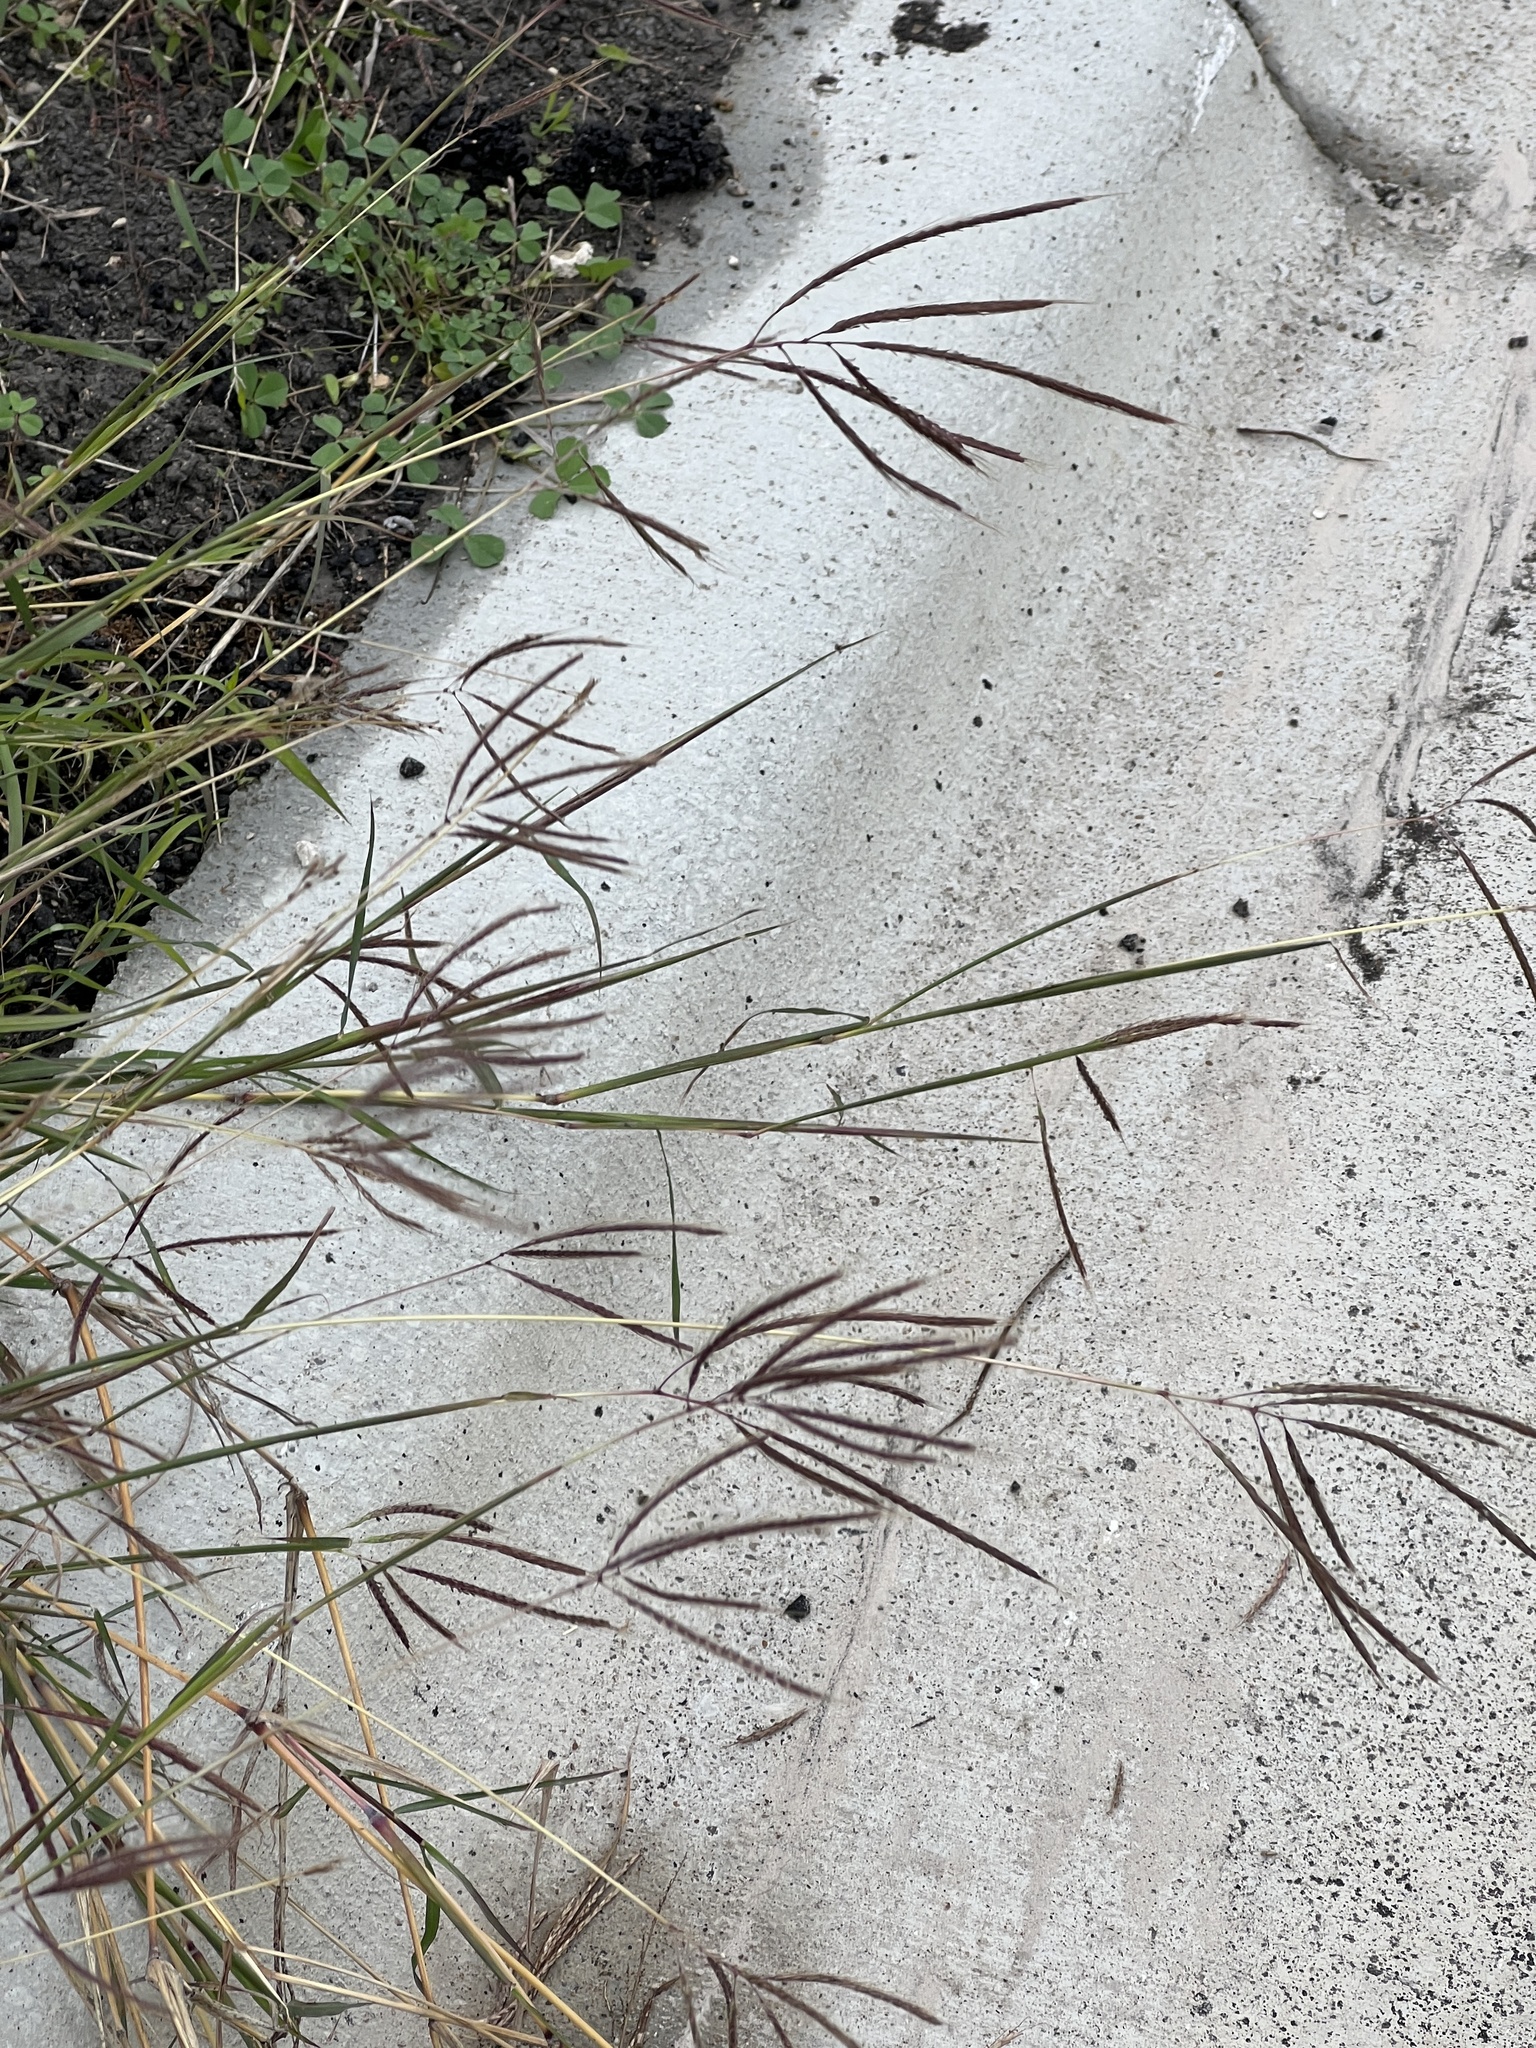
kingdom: Plantae
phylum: Tracheophyta
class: Liliopsida
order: Poales
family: Poaceae
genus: Dichanthium
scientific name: Dichanthium annulatum
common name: Kleberg's bluestem
